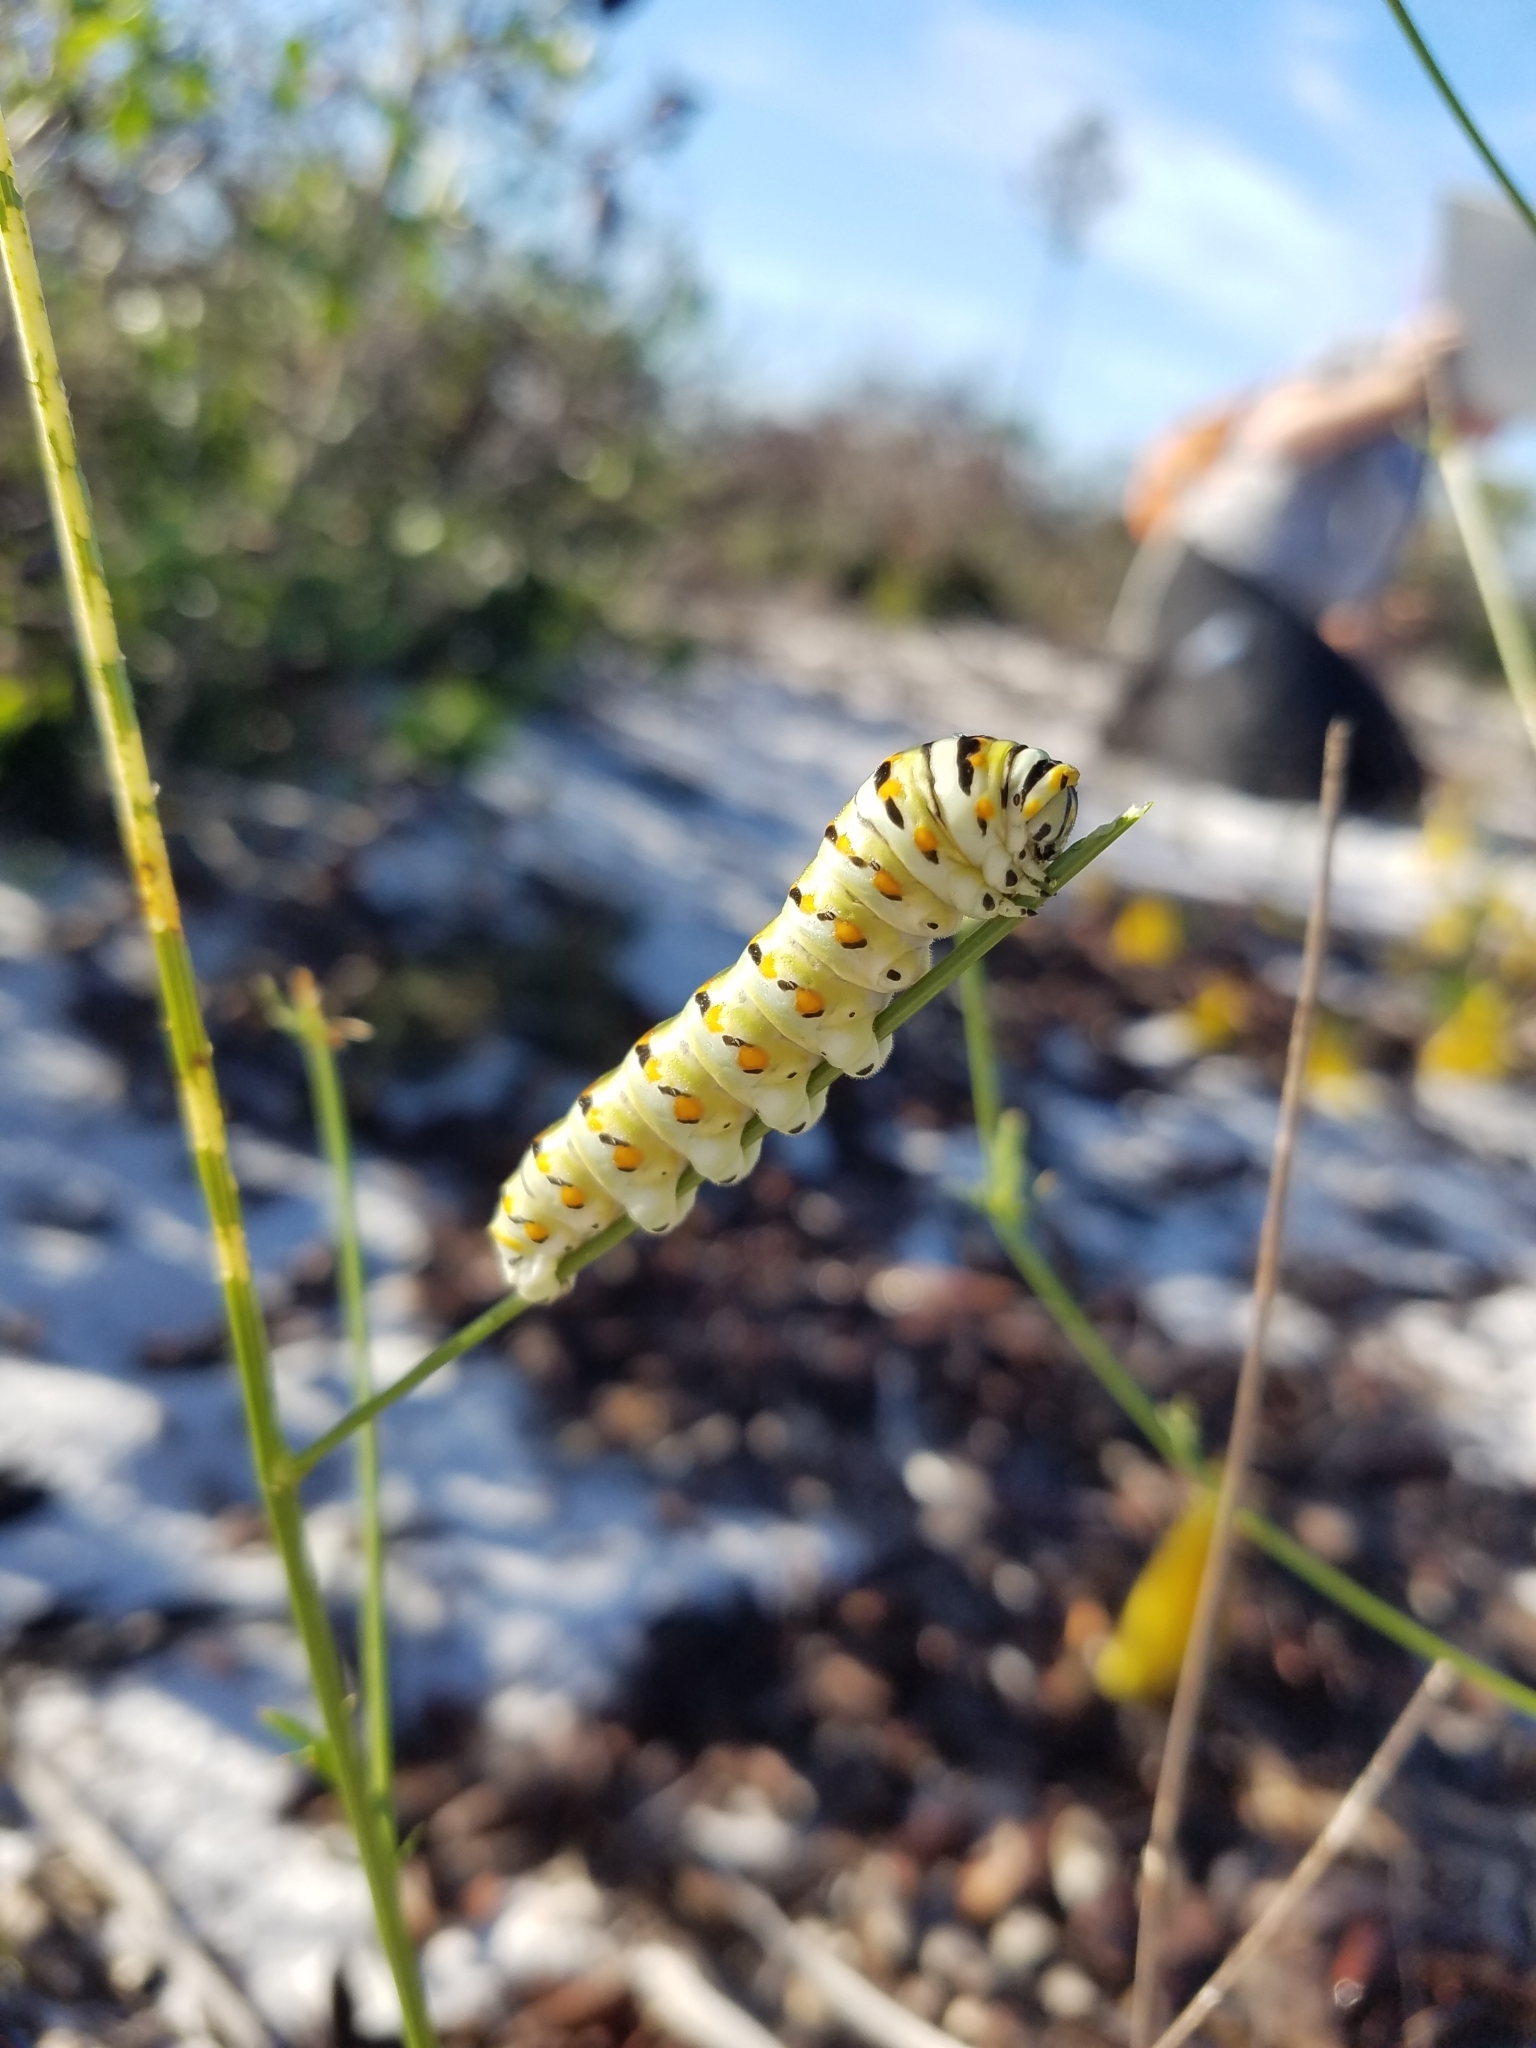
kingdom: Animalia
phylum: Arthropoda
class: Insecta
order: Lepidoptera
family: Papilionidae
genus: Papilio
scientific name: Papilio polyxenes
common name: Black swallowtail
